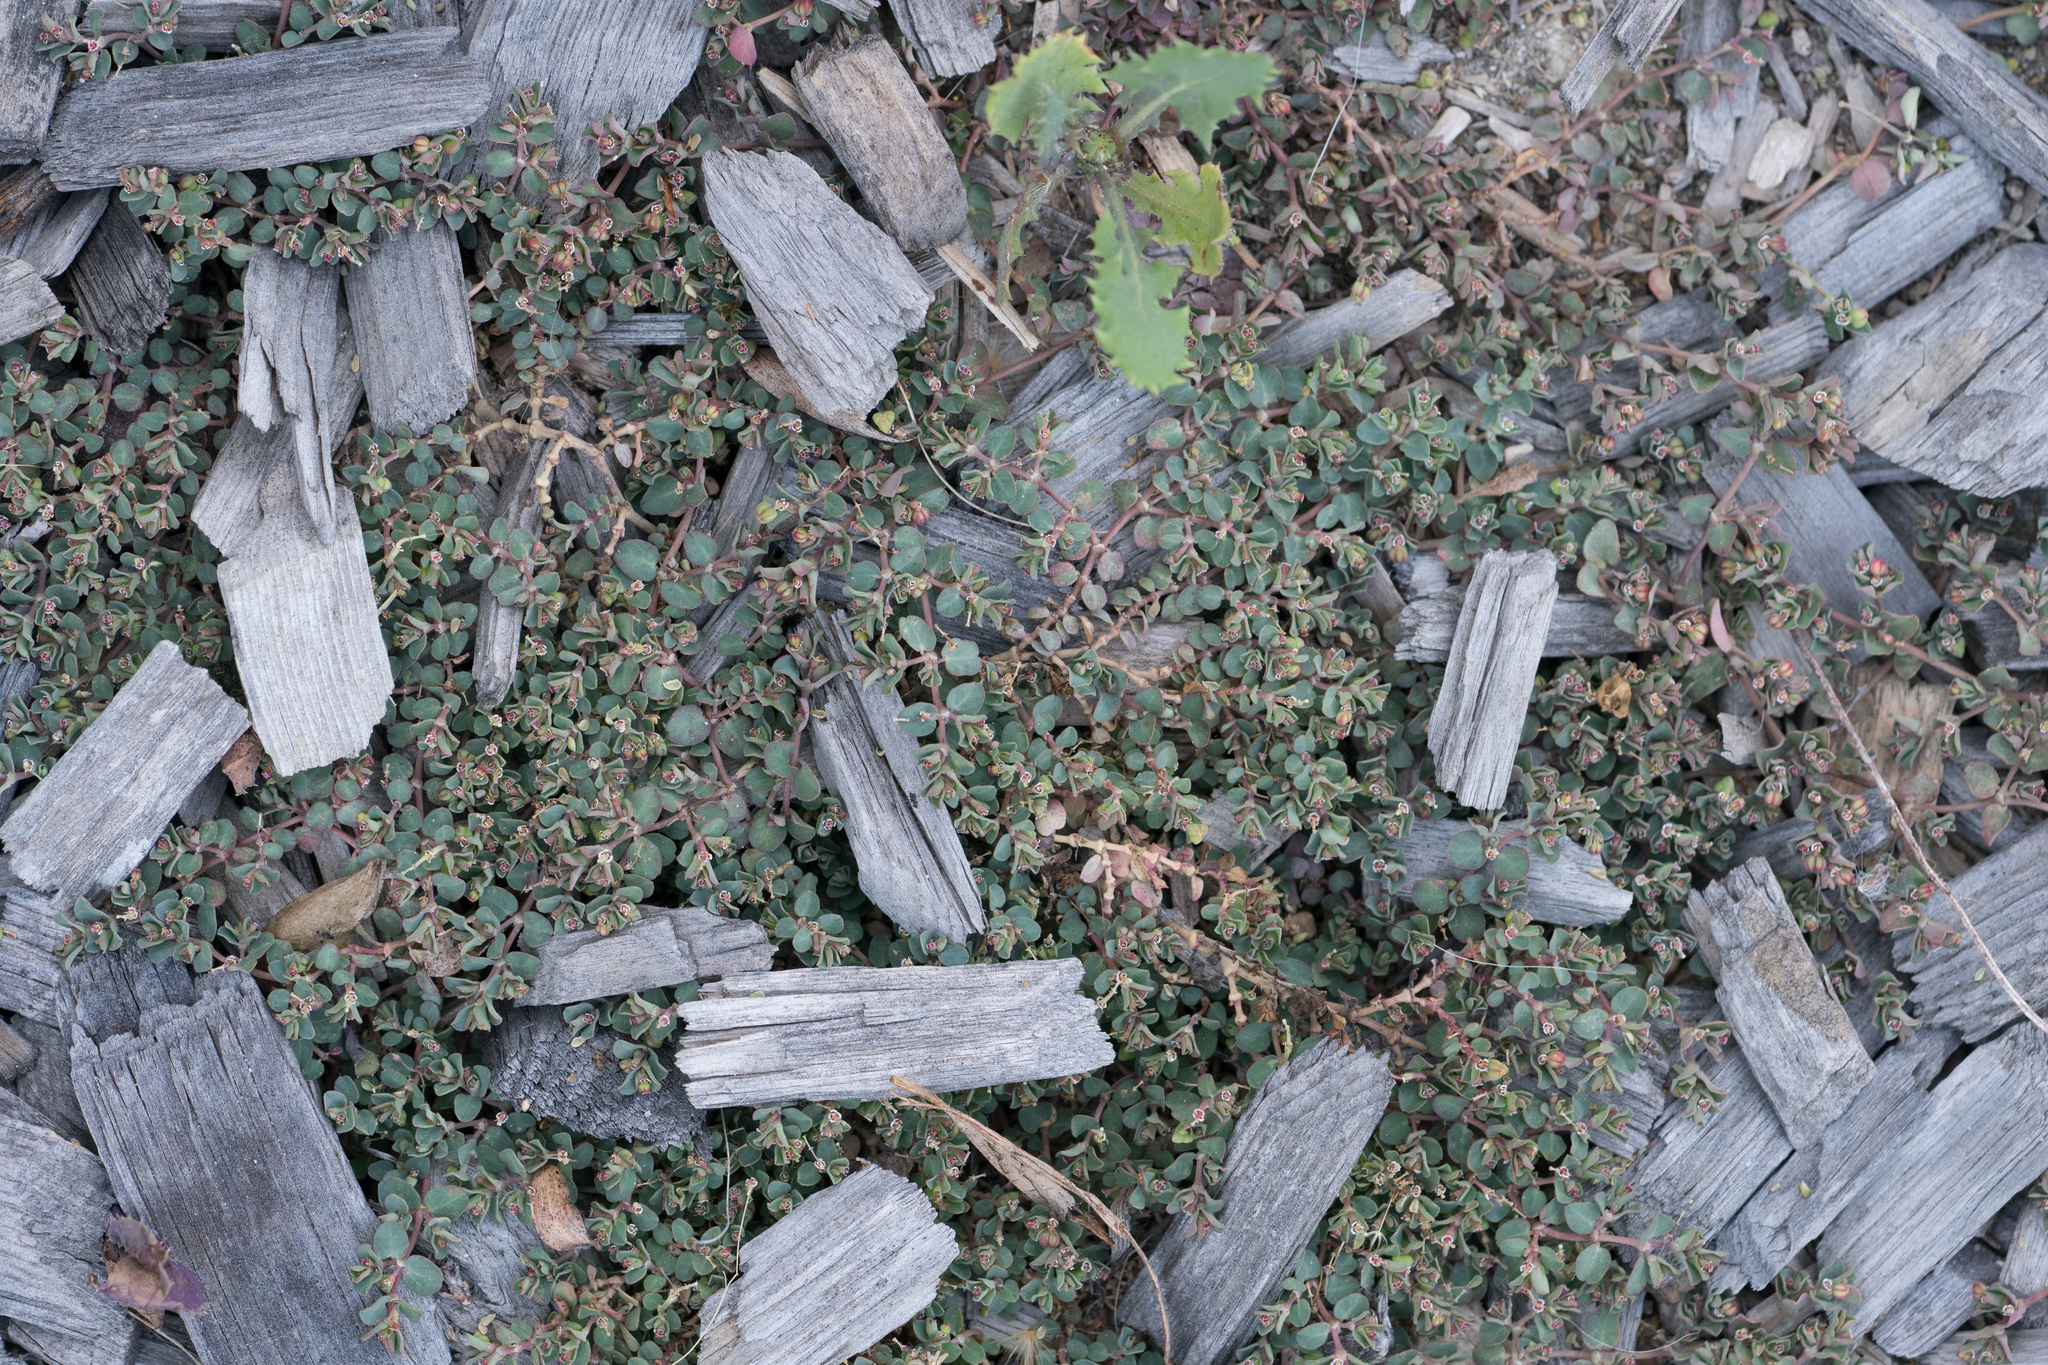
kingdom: Plantae
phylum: Tracheophyta
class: Magnoliopsida
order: Malpighiales
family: Euphorbiaceae
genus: Euphorbia
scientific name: Euphorbia serpens
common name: Matted sandmat
